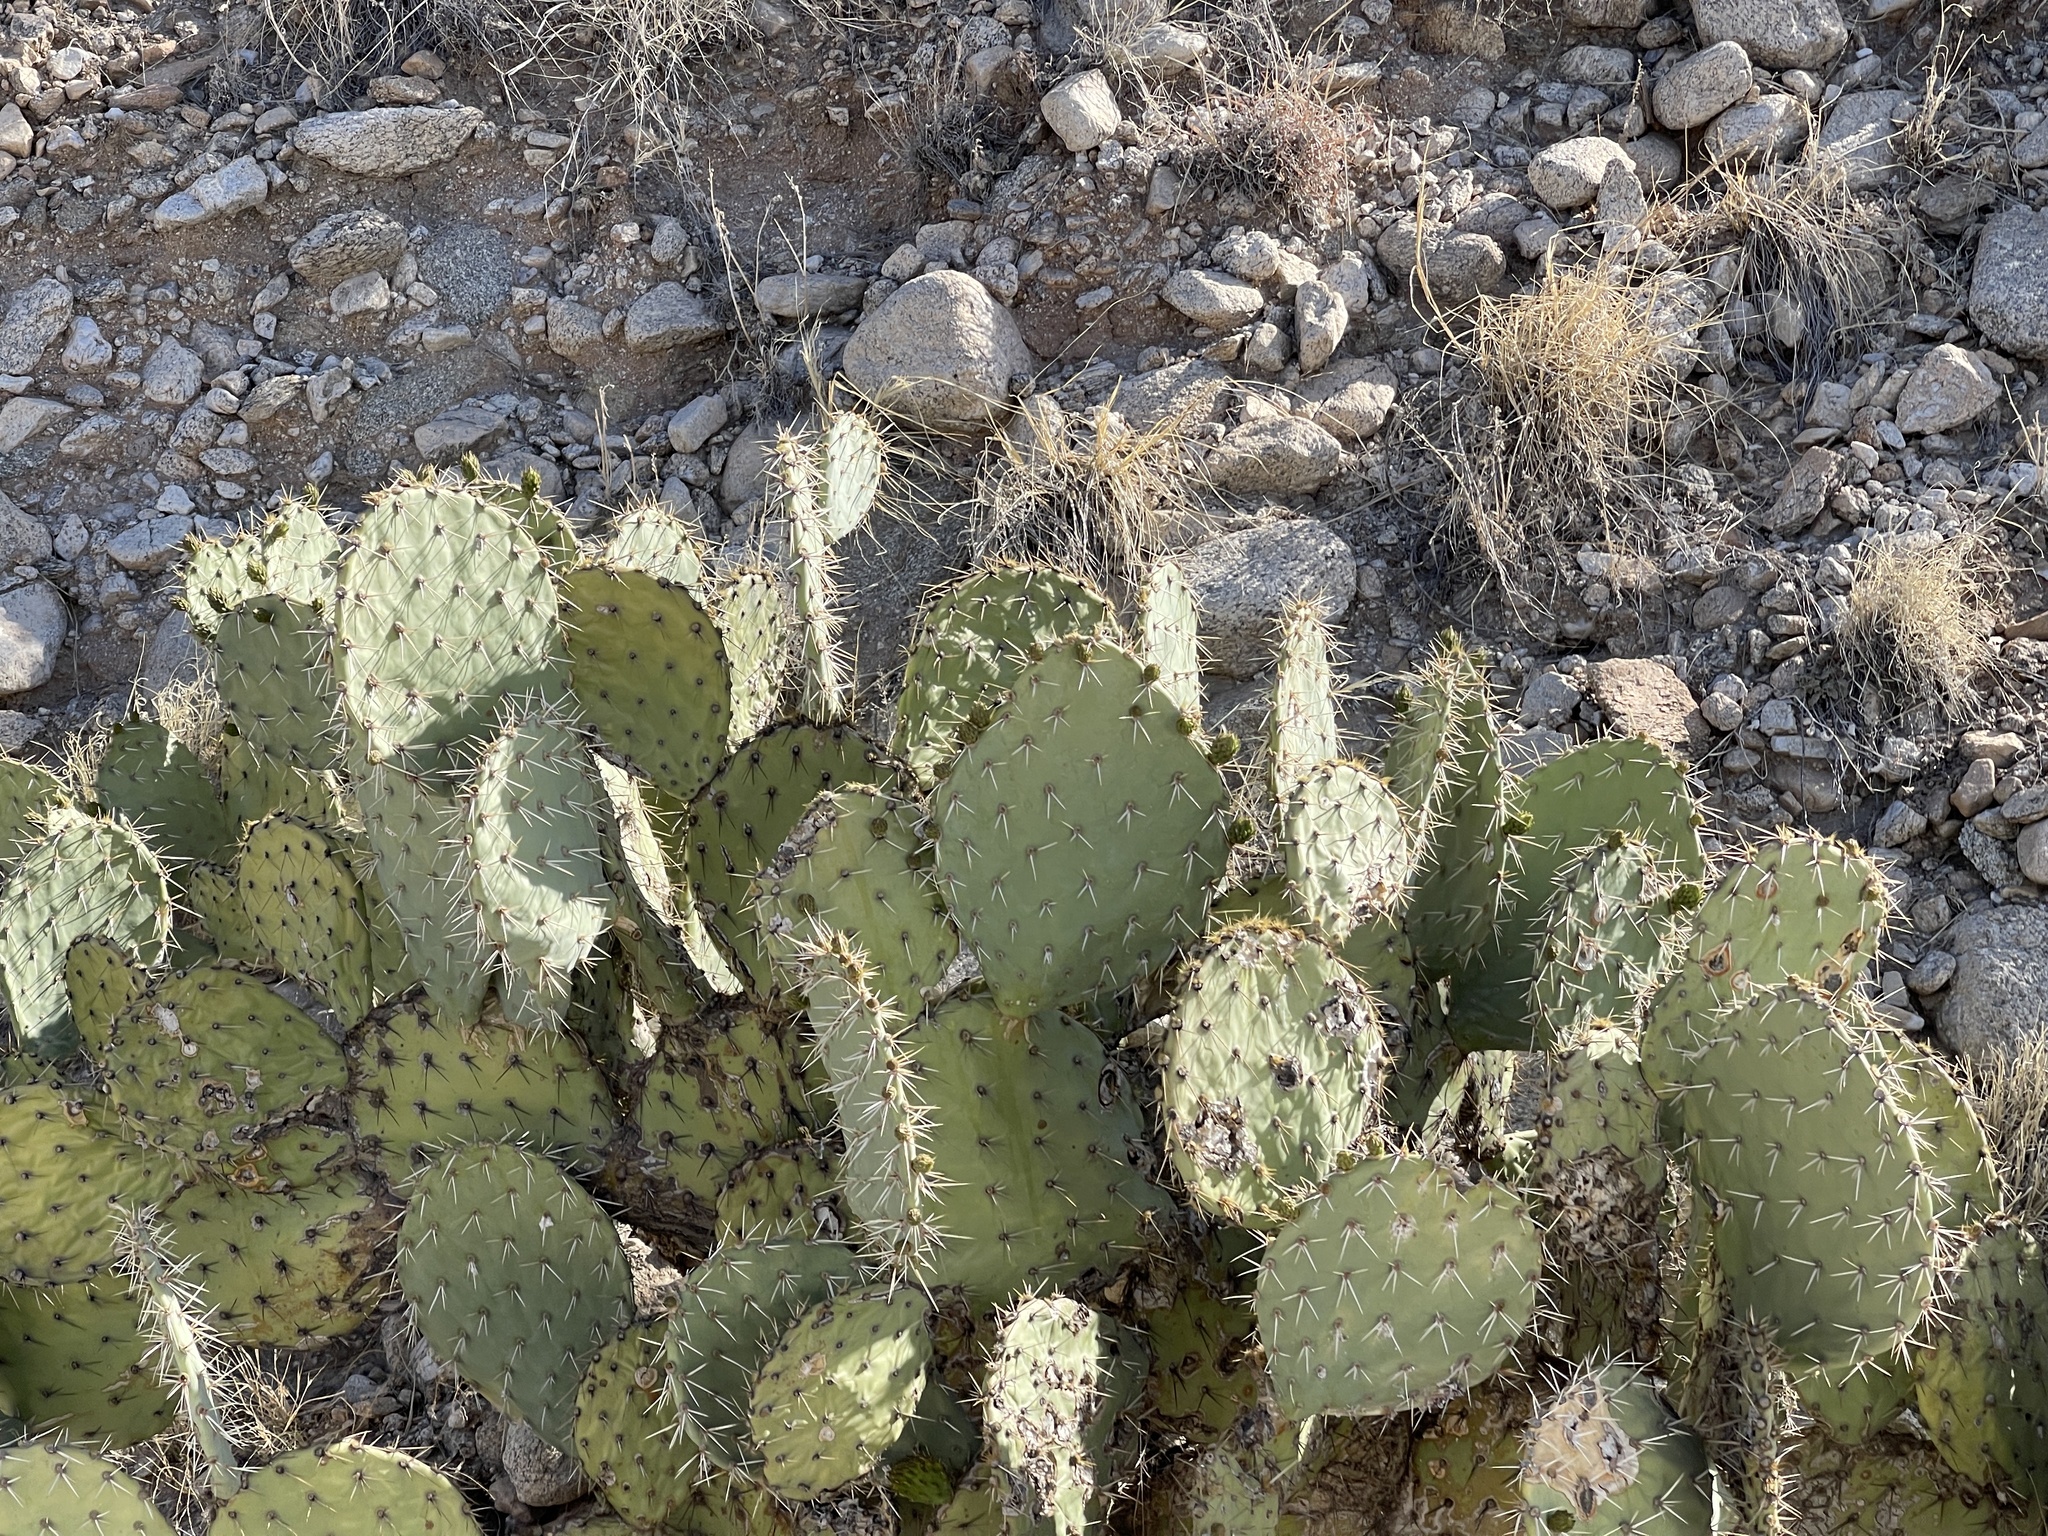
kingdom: Plantae
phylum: Tracheophyta
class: Magnoliopsida
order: Caryophyllales
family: Cactaceae
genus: Opuntia
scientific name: Opuntia engelmannii
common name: Cactus-apple
